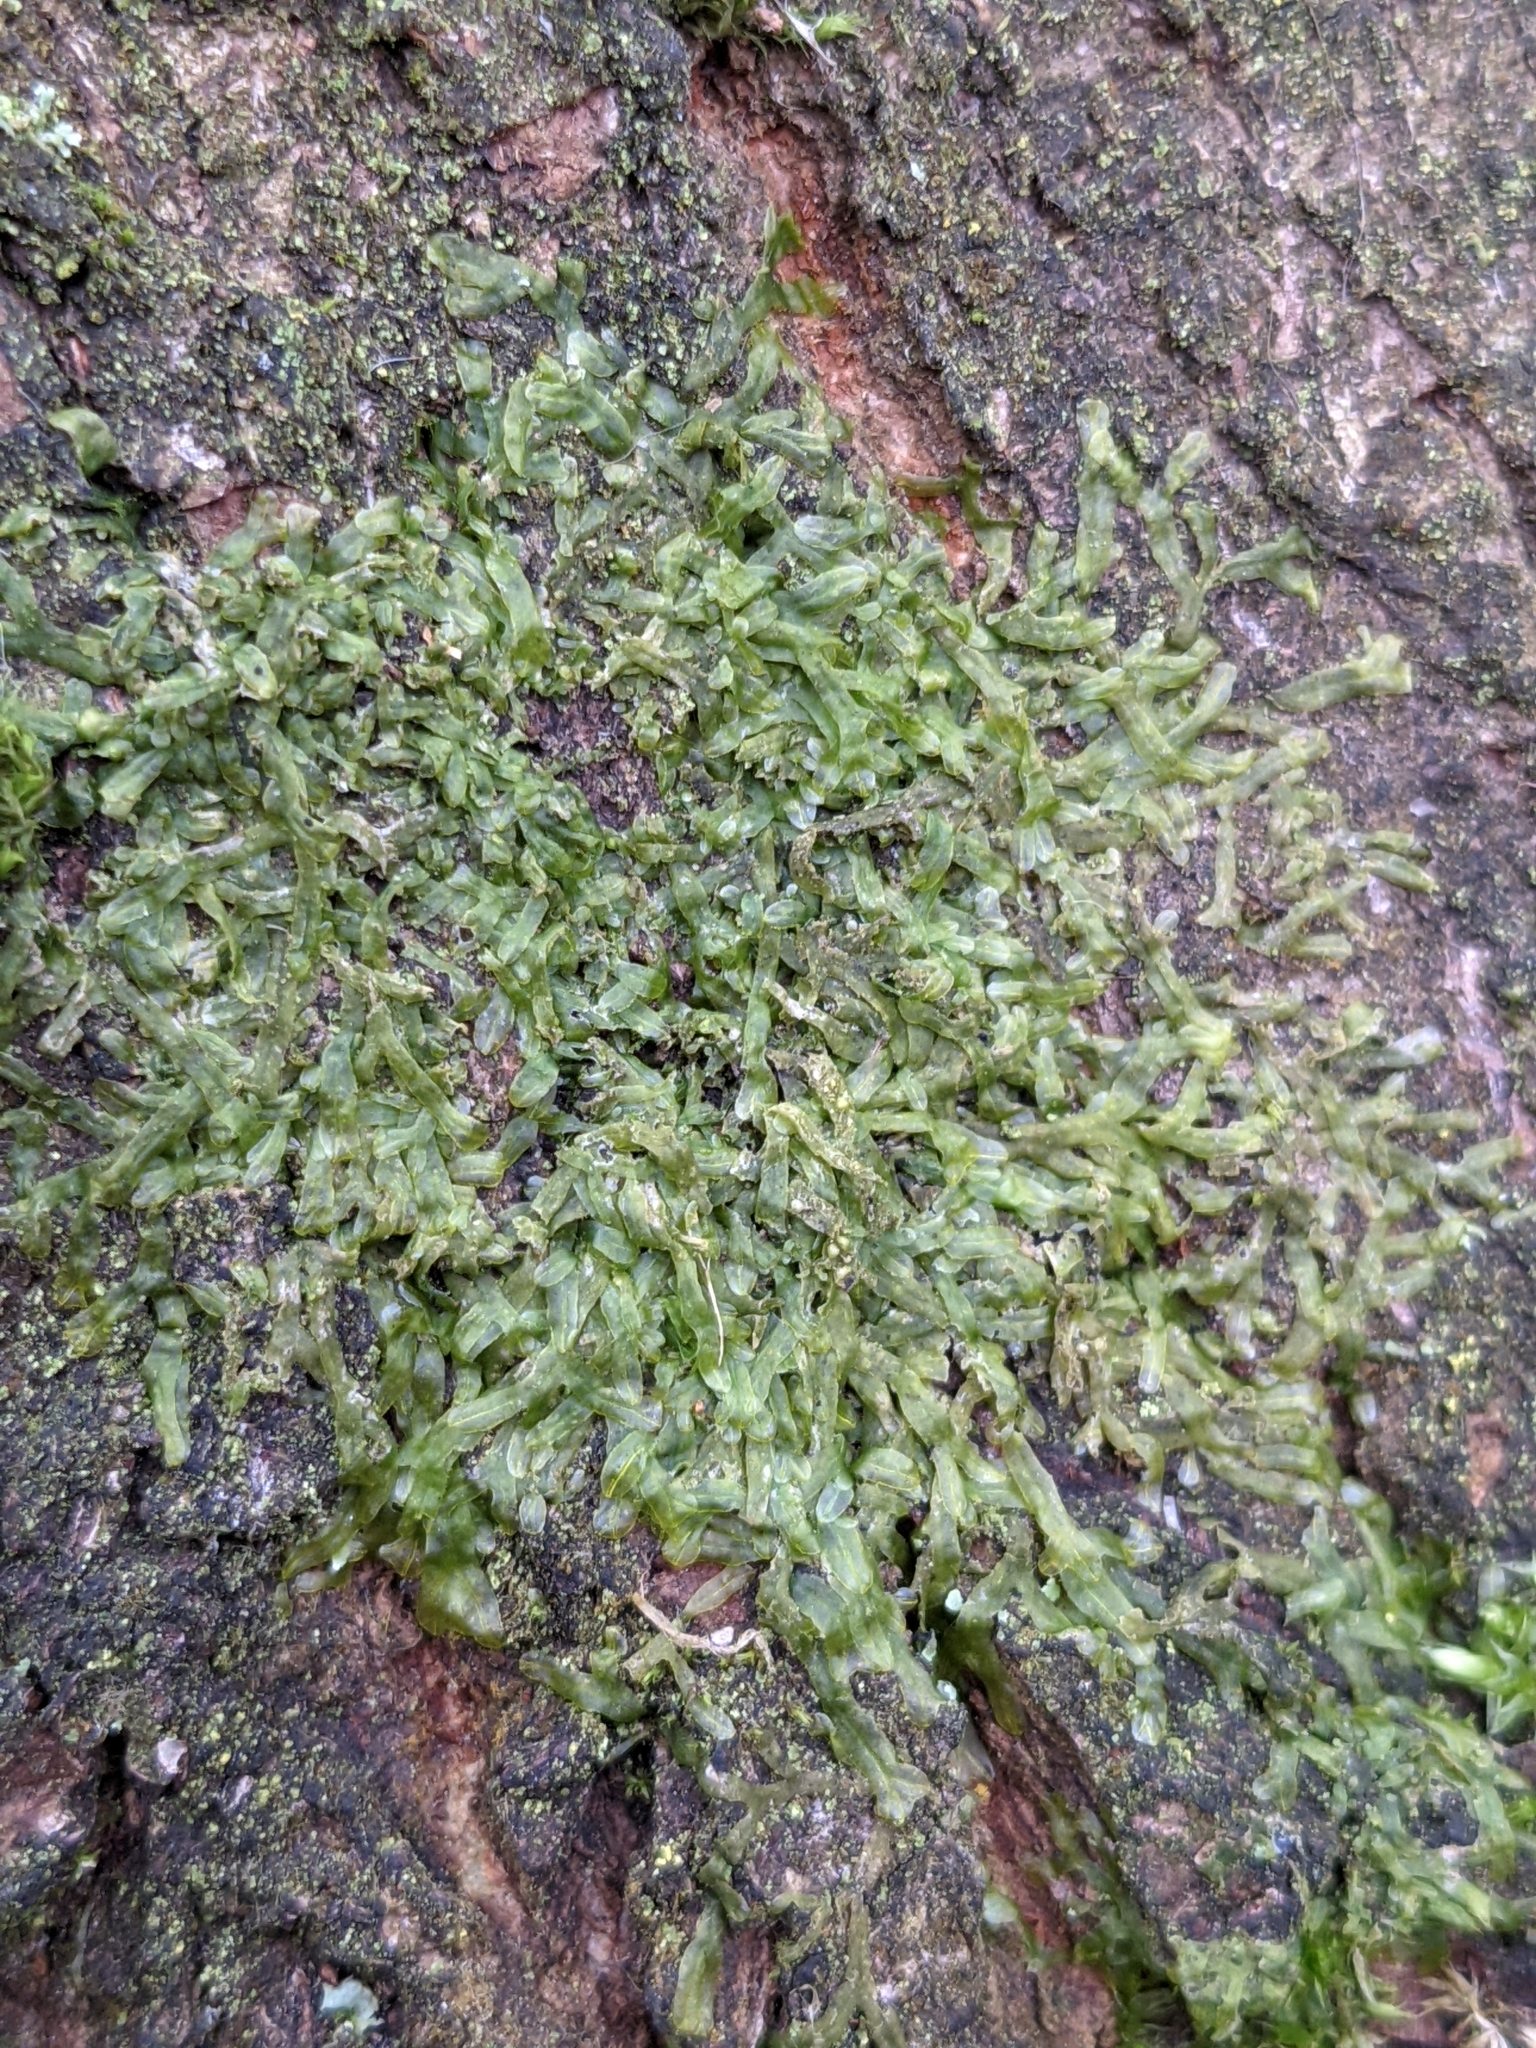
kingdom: Plantae
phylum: Marchantiophyta
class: Jungermanniopsida
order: Metzgeriales
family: Metzgeriaceae
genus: Metzgeria
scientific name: Metzgeria furcata
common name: Forked veilwort
